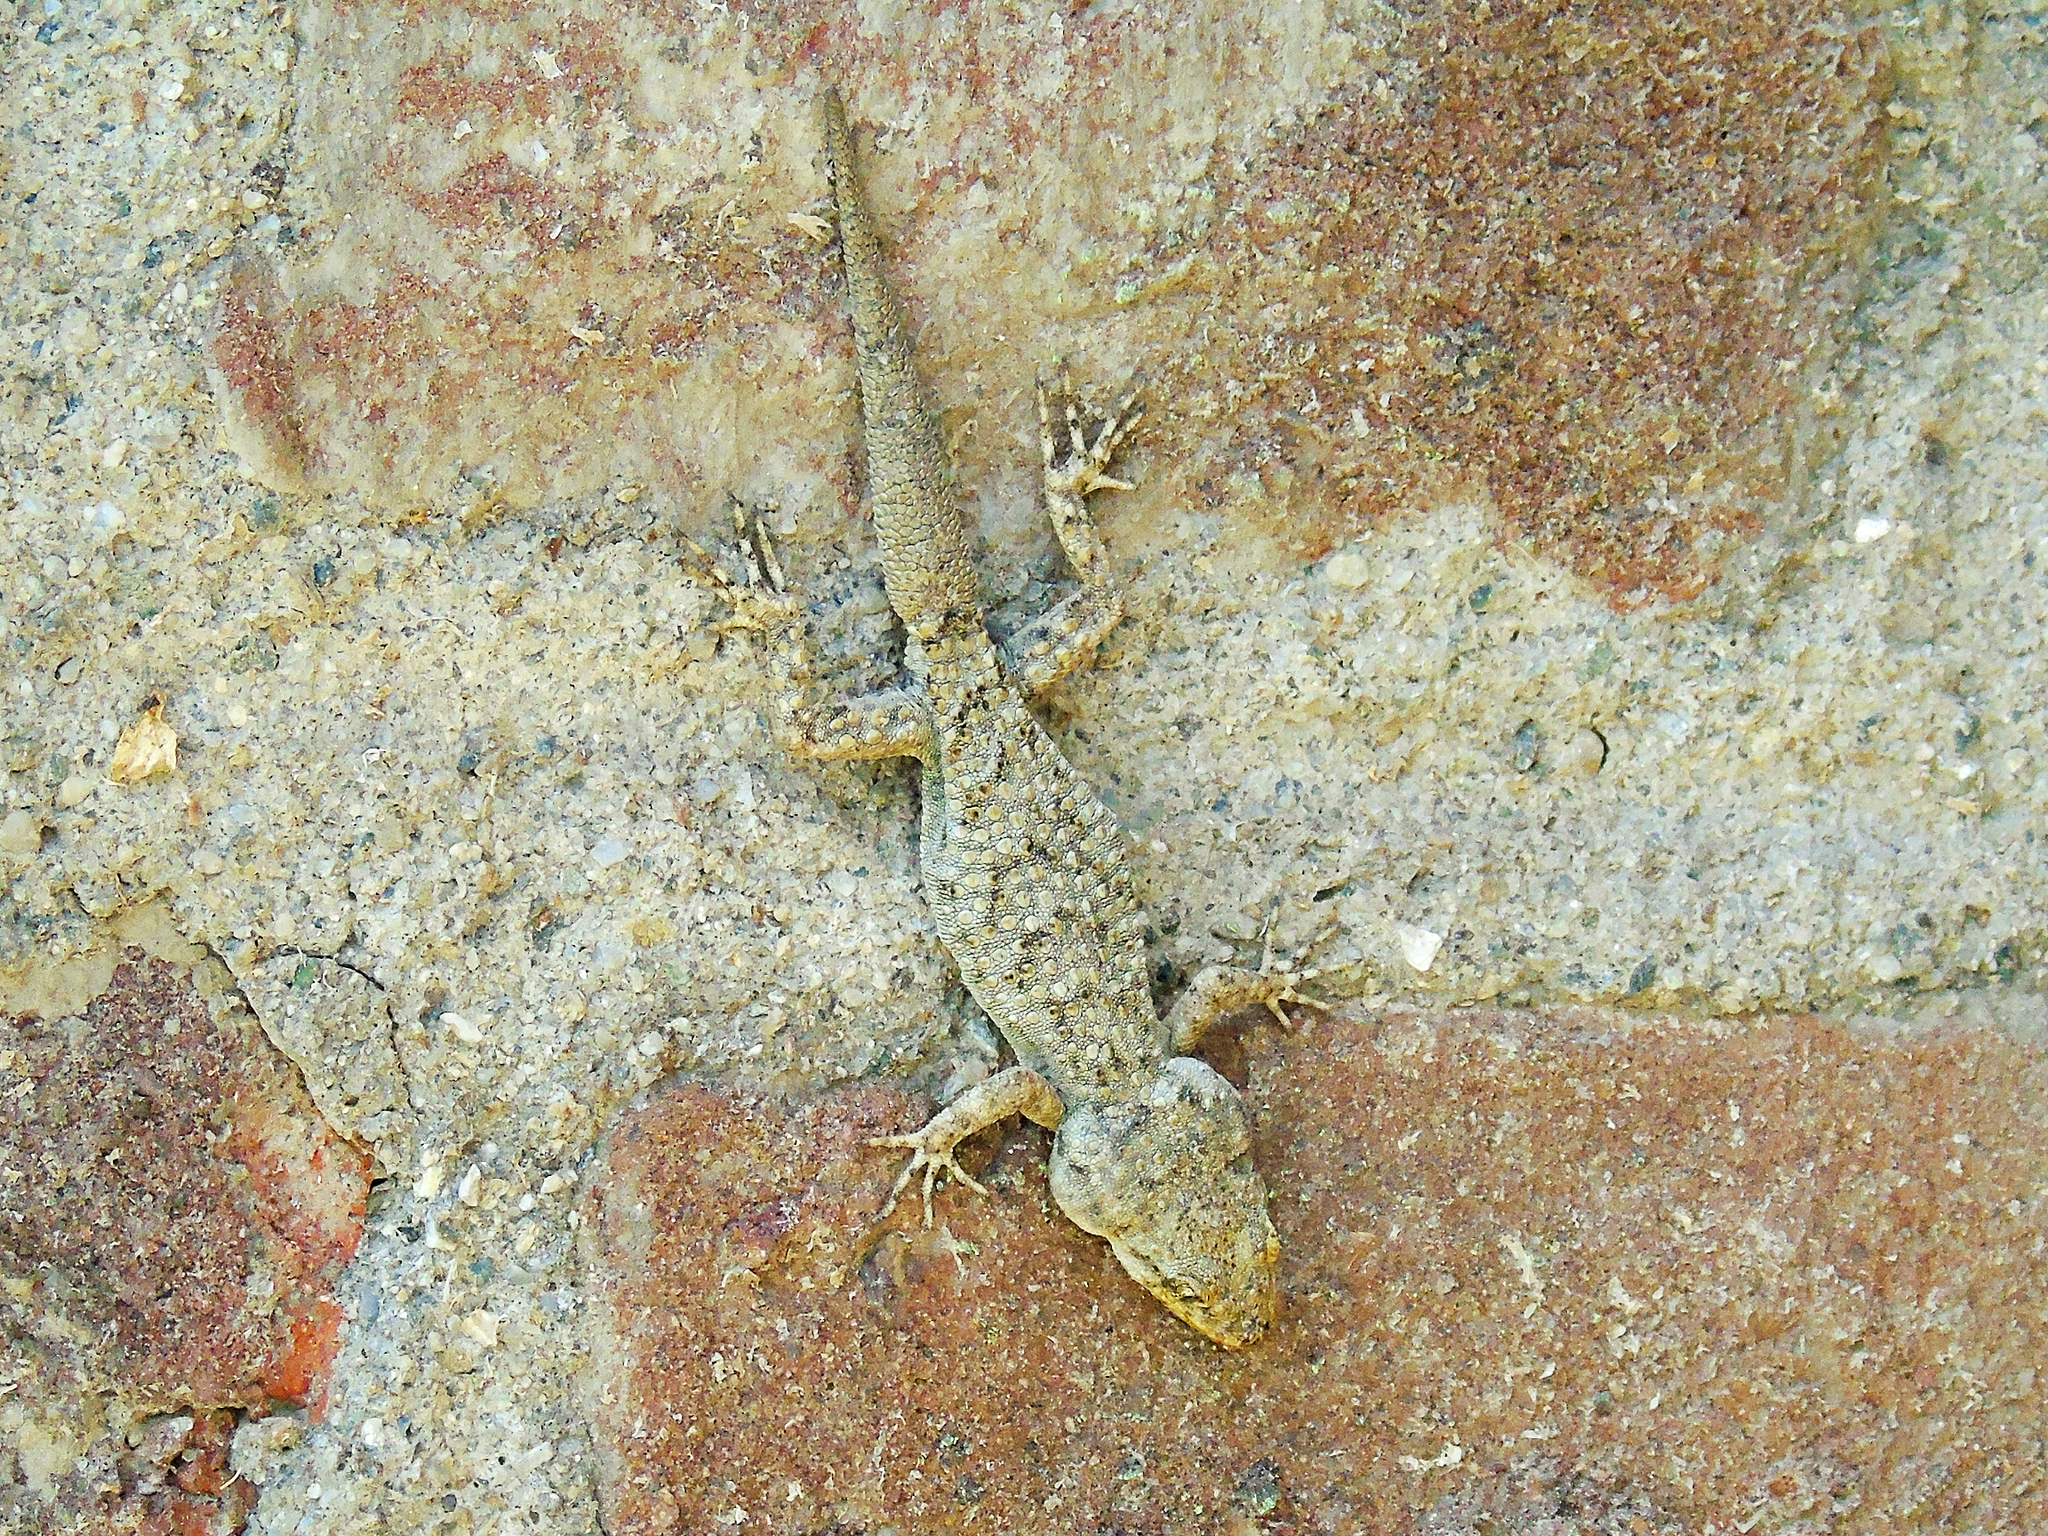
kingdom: Animalia
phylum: Chordata
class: Squamata
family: Gekkonidae
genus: Mediodactylus
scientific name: Mediodactylus kotschyi
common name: Kotschy's gecko
